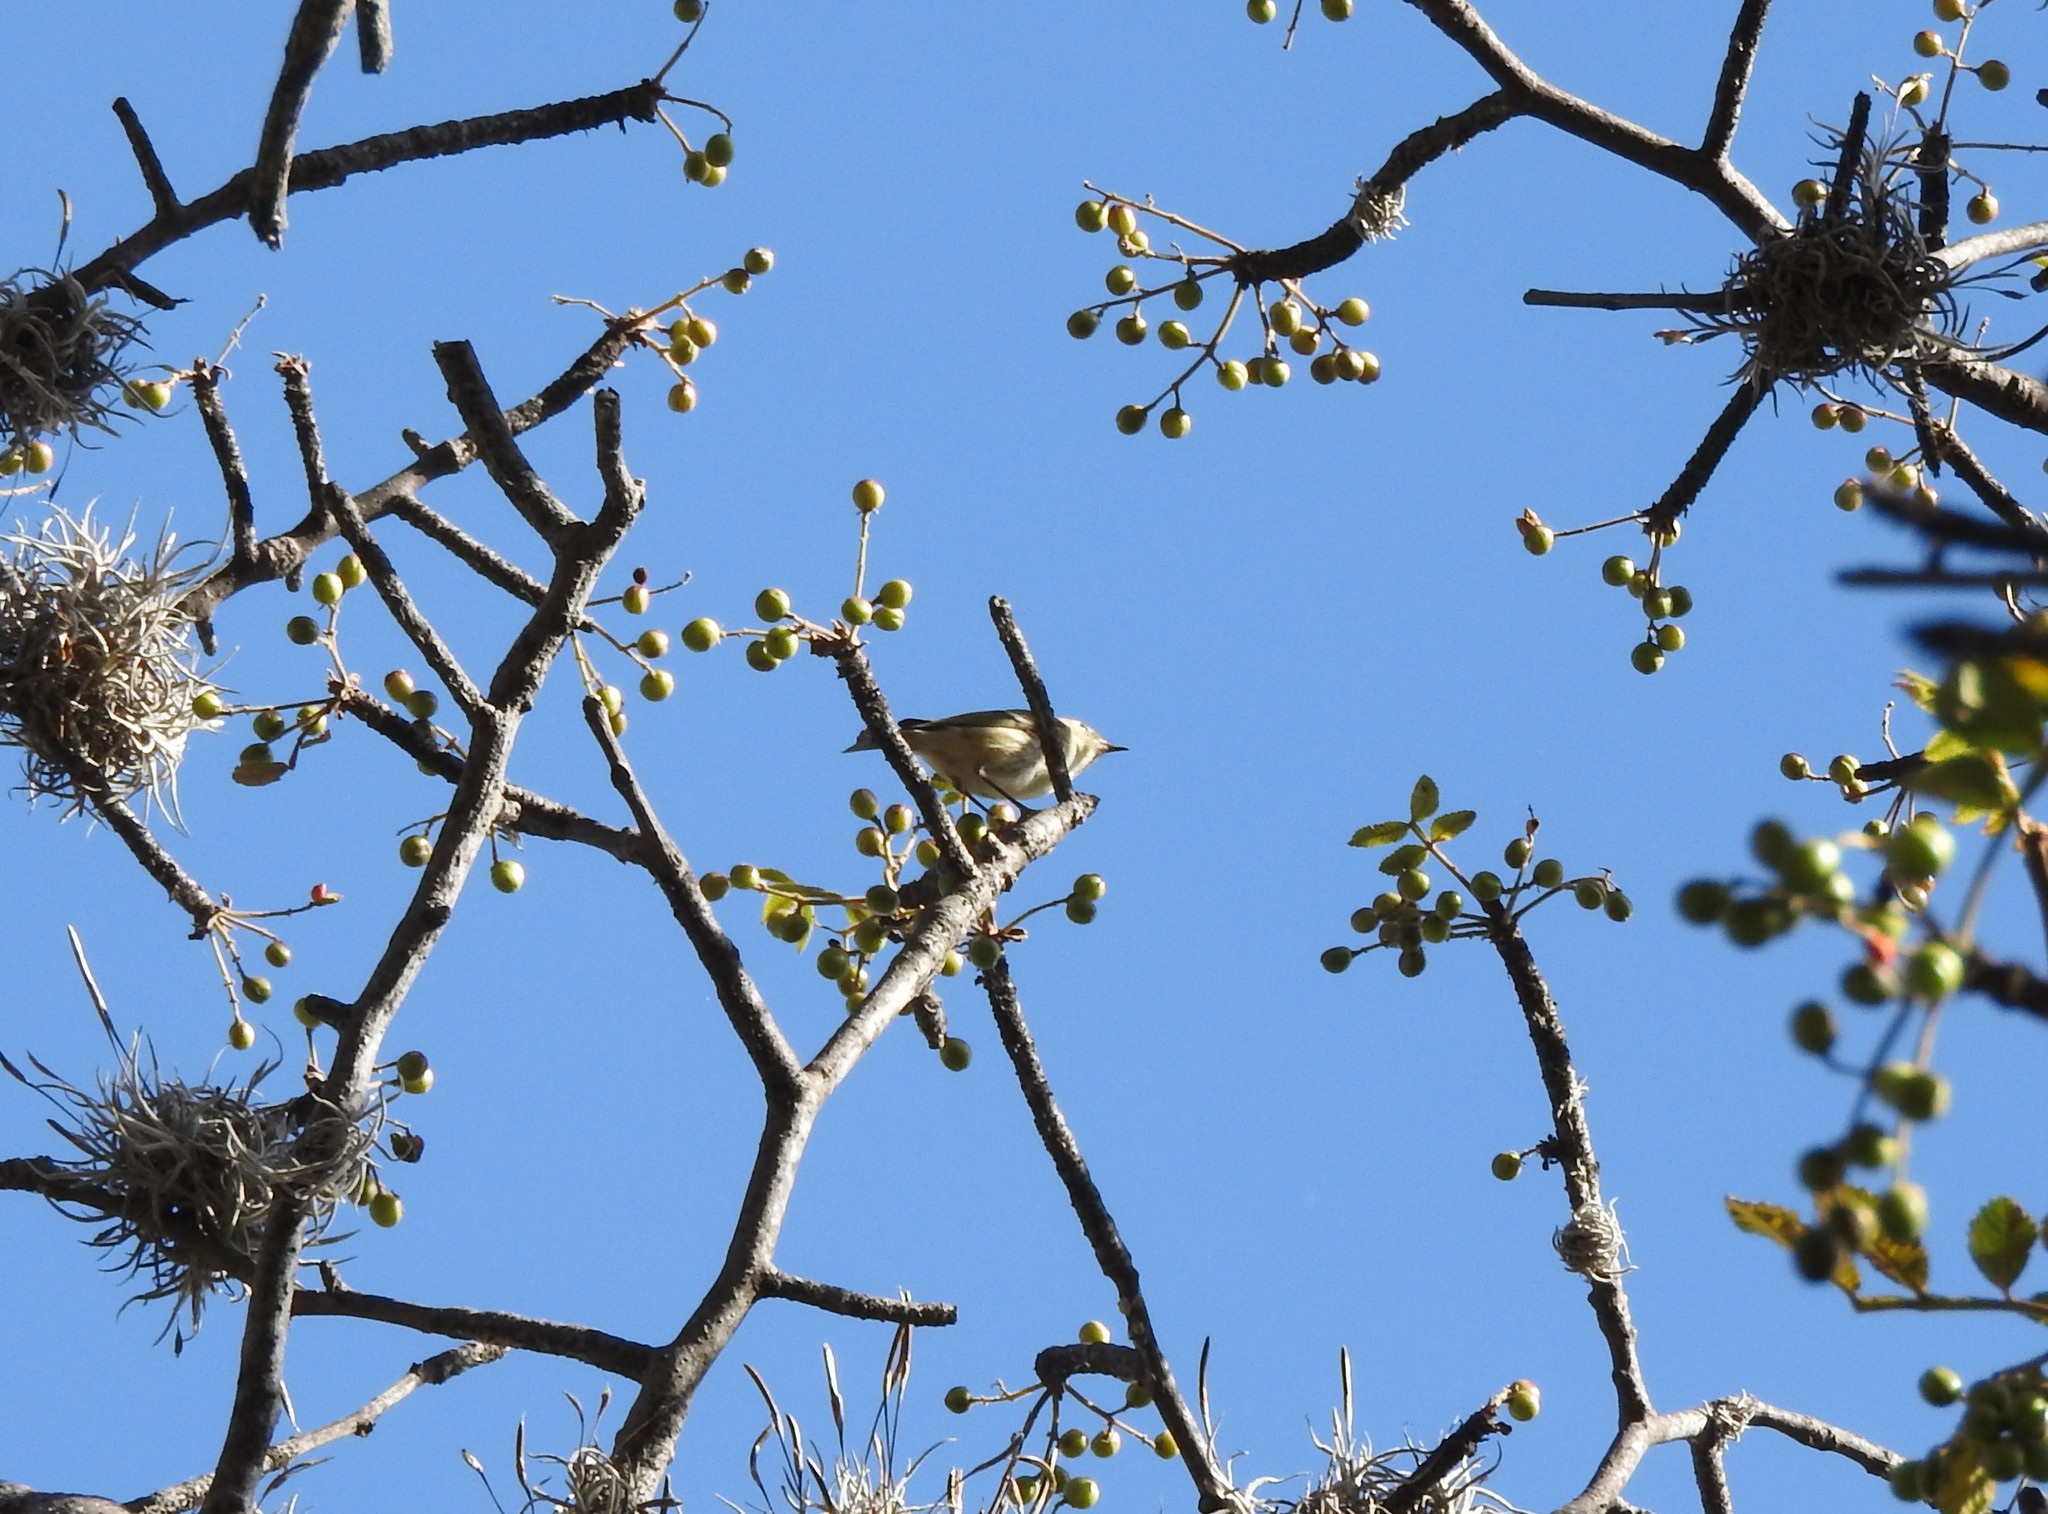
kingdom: Animalia
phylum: Chordata
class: Aves
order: Passeriformes
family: Regulidae
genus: Regulus
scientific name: Regulus calendula
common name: Ruby-crowned kinglet
